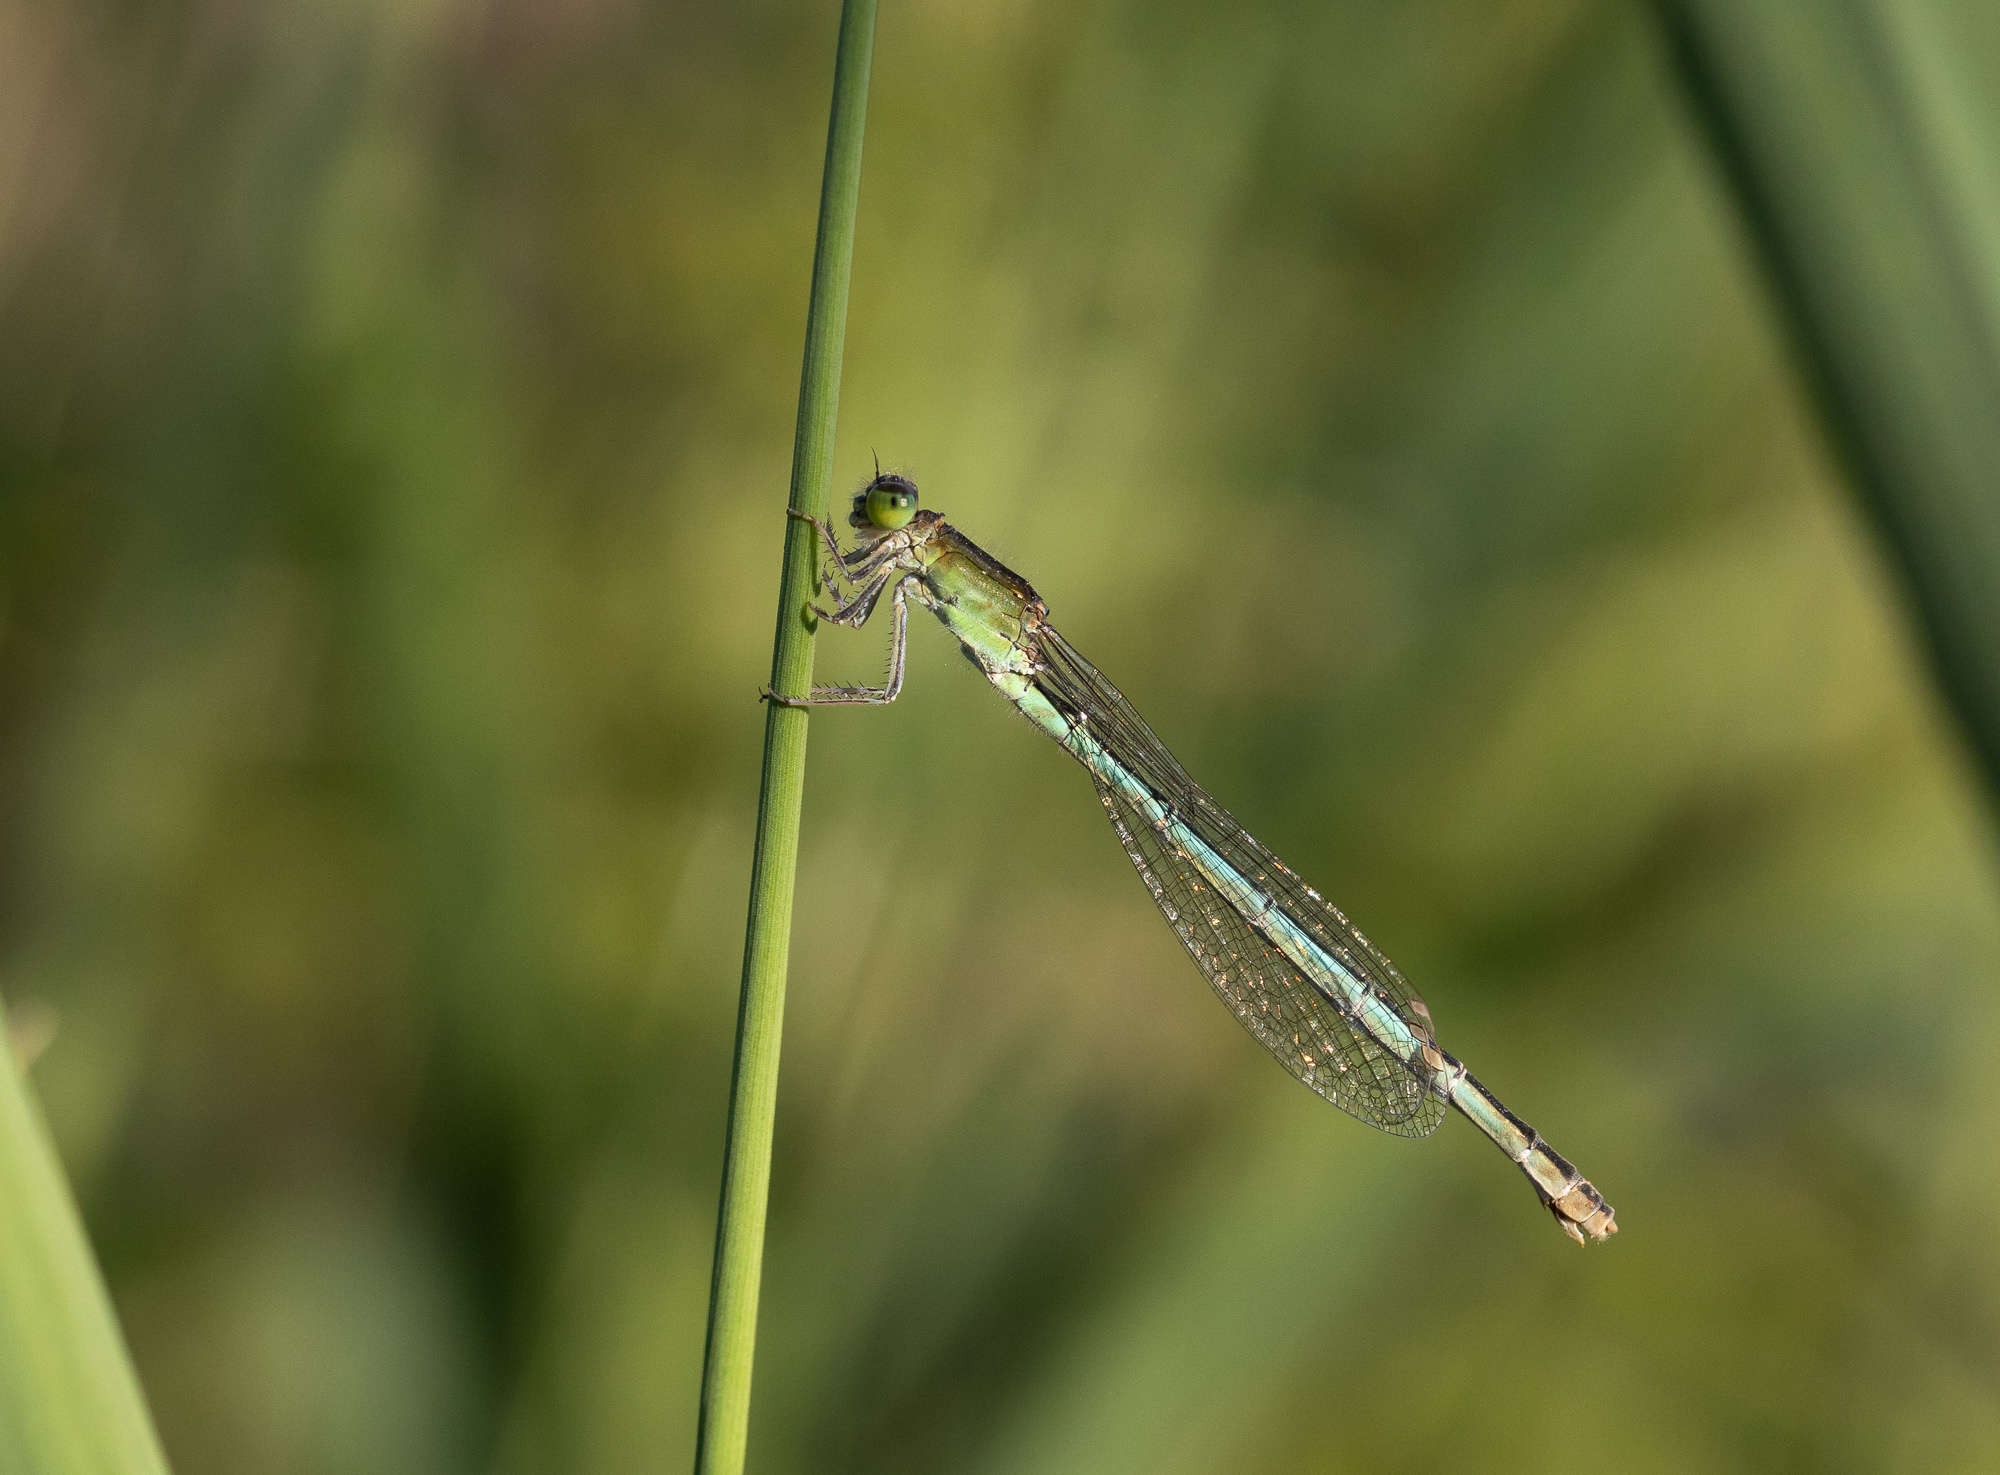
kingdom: Animalia
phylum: Arthropoda
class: Insecta
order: Odonata
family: Coenagrionidae
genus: Ischnura
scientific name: Ischnura pumilio
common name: Scarce blue-tailed damselfly
